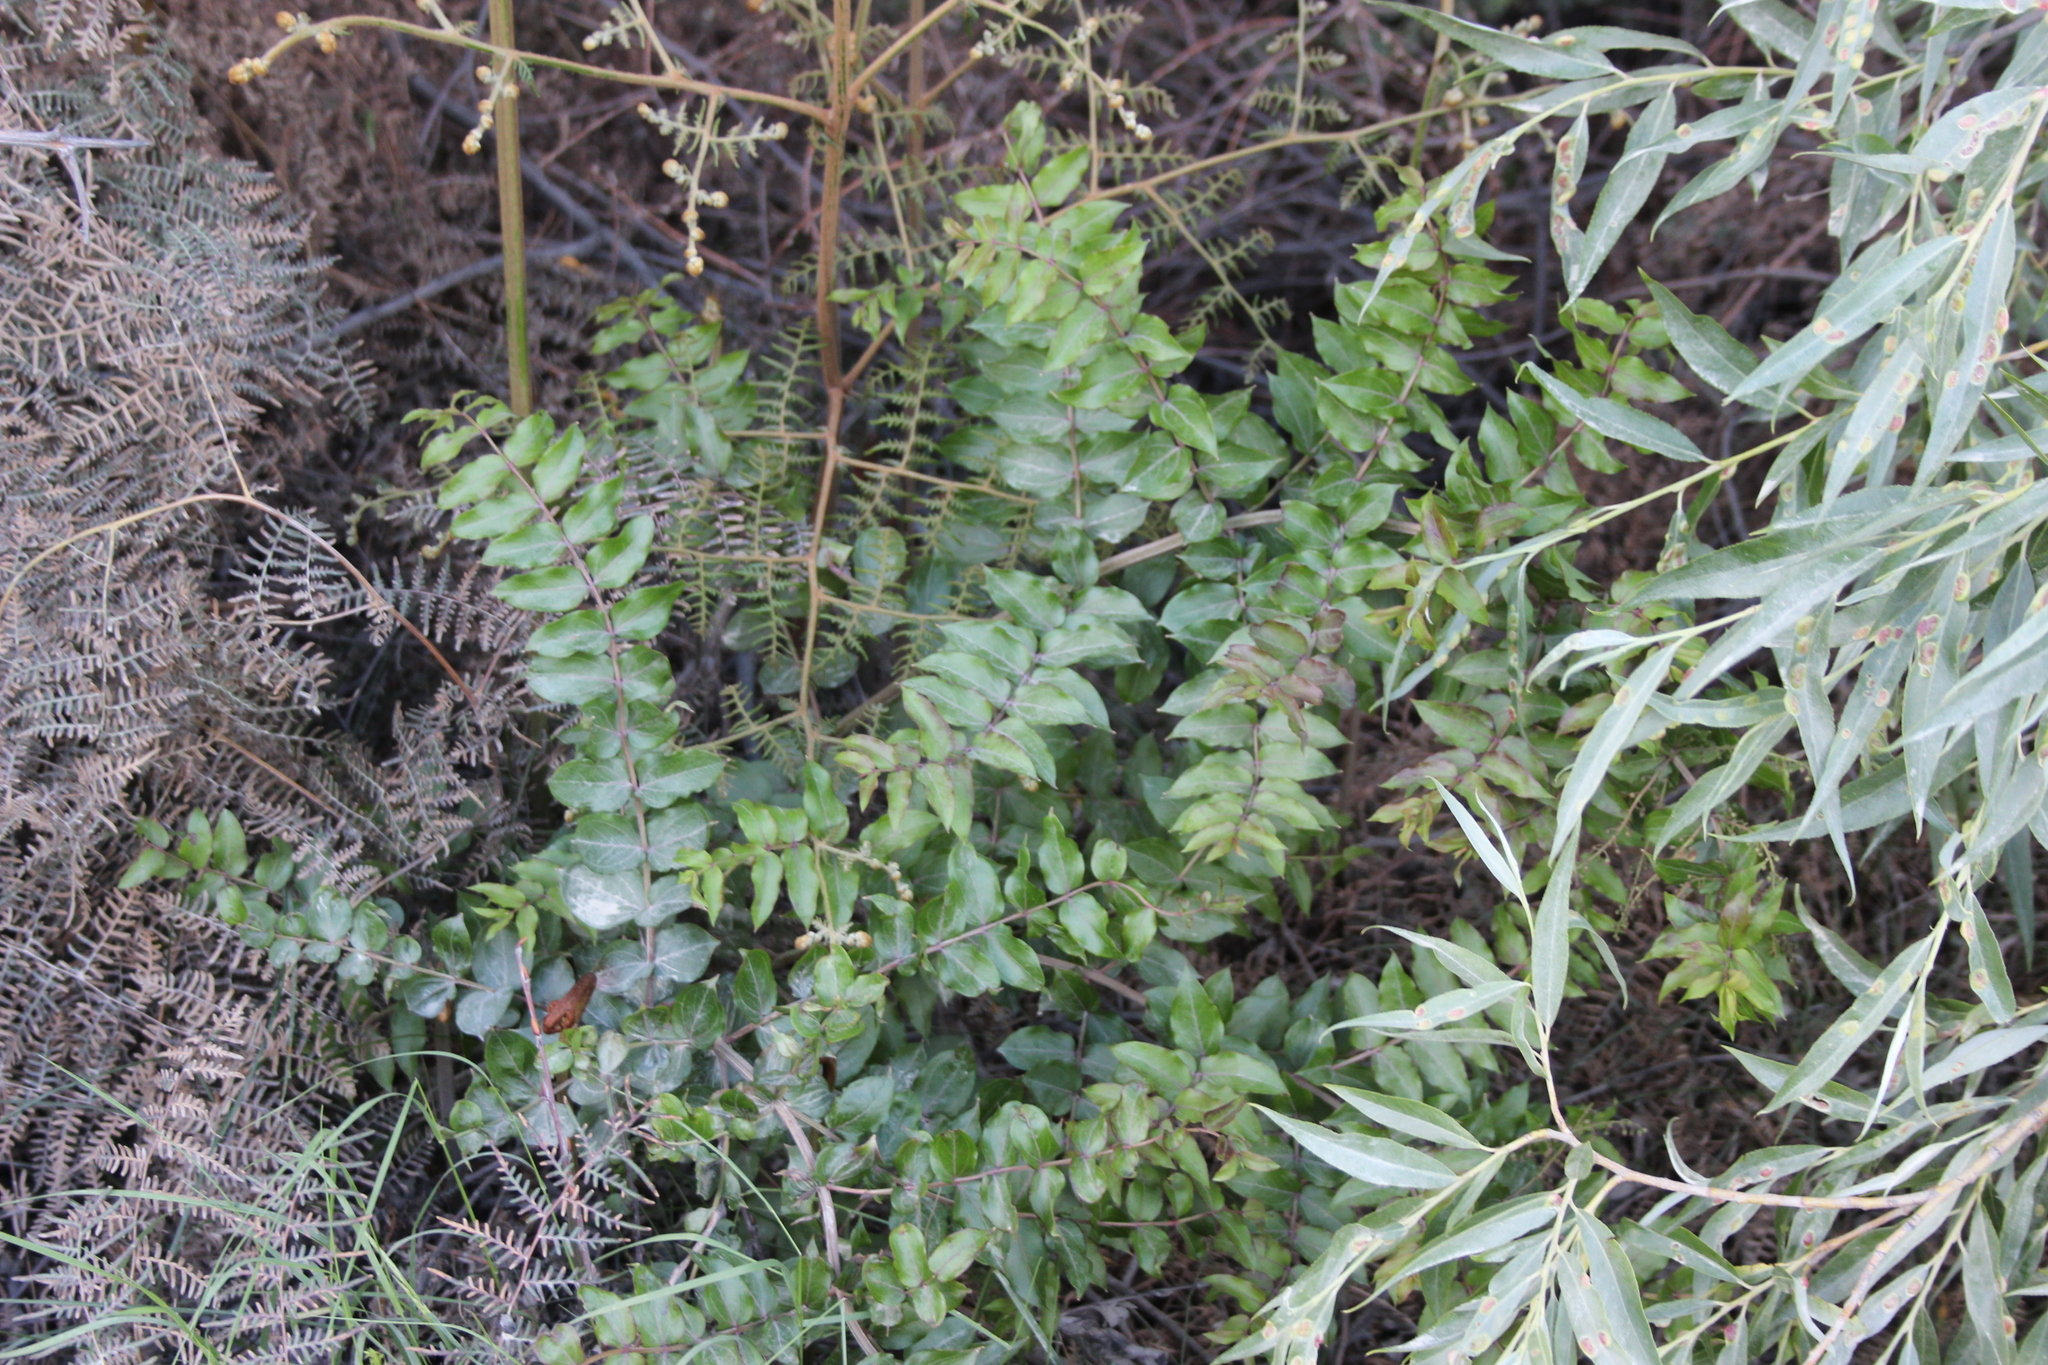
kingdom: Plantae
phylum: Tracheophyta
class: Magnoliopsida
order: Cucurbitales
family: Coriariaceae
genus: Coriaria
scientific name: Coriaria sarmentosa
